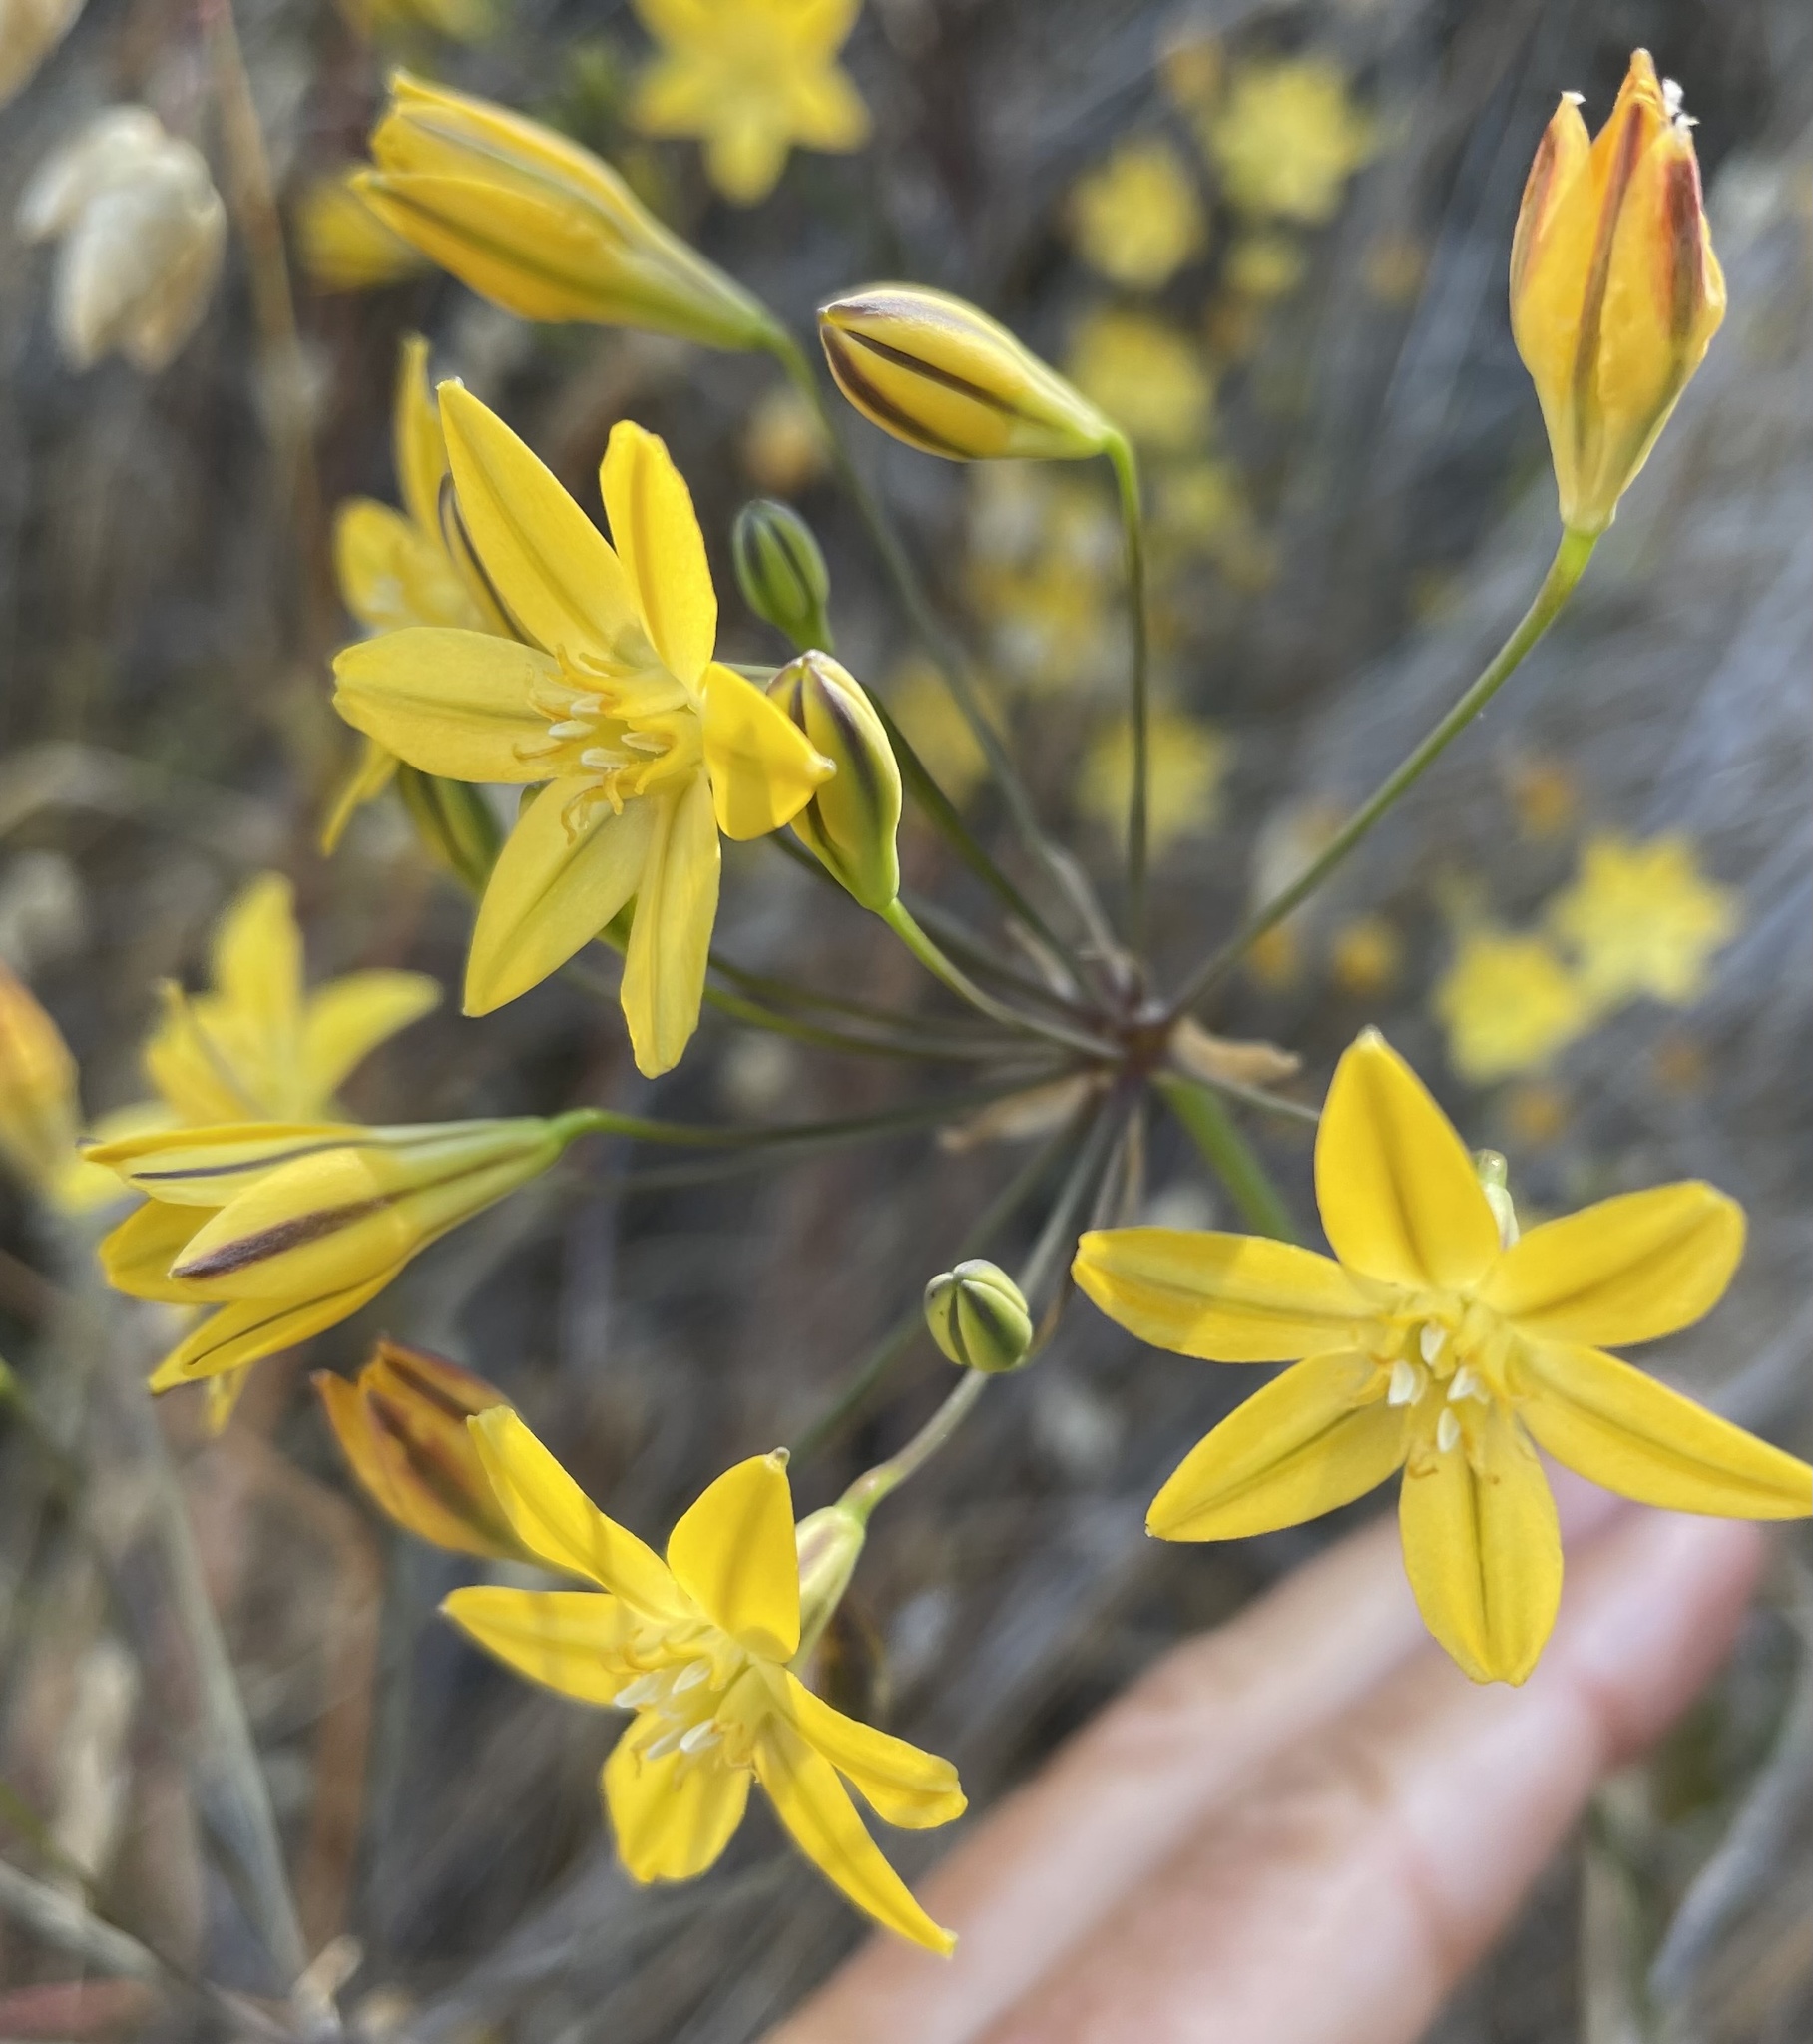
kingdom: Plantae
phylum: Tracheophyta
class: Liliopsida
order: Asparagales
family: Asparagaceae
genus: Triteleia
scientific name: Triteleia ixioides
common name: Yellow-brodiaea
